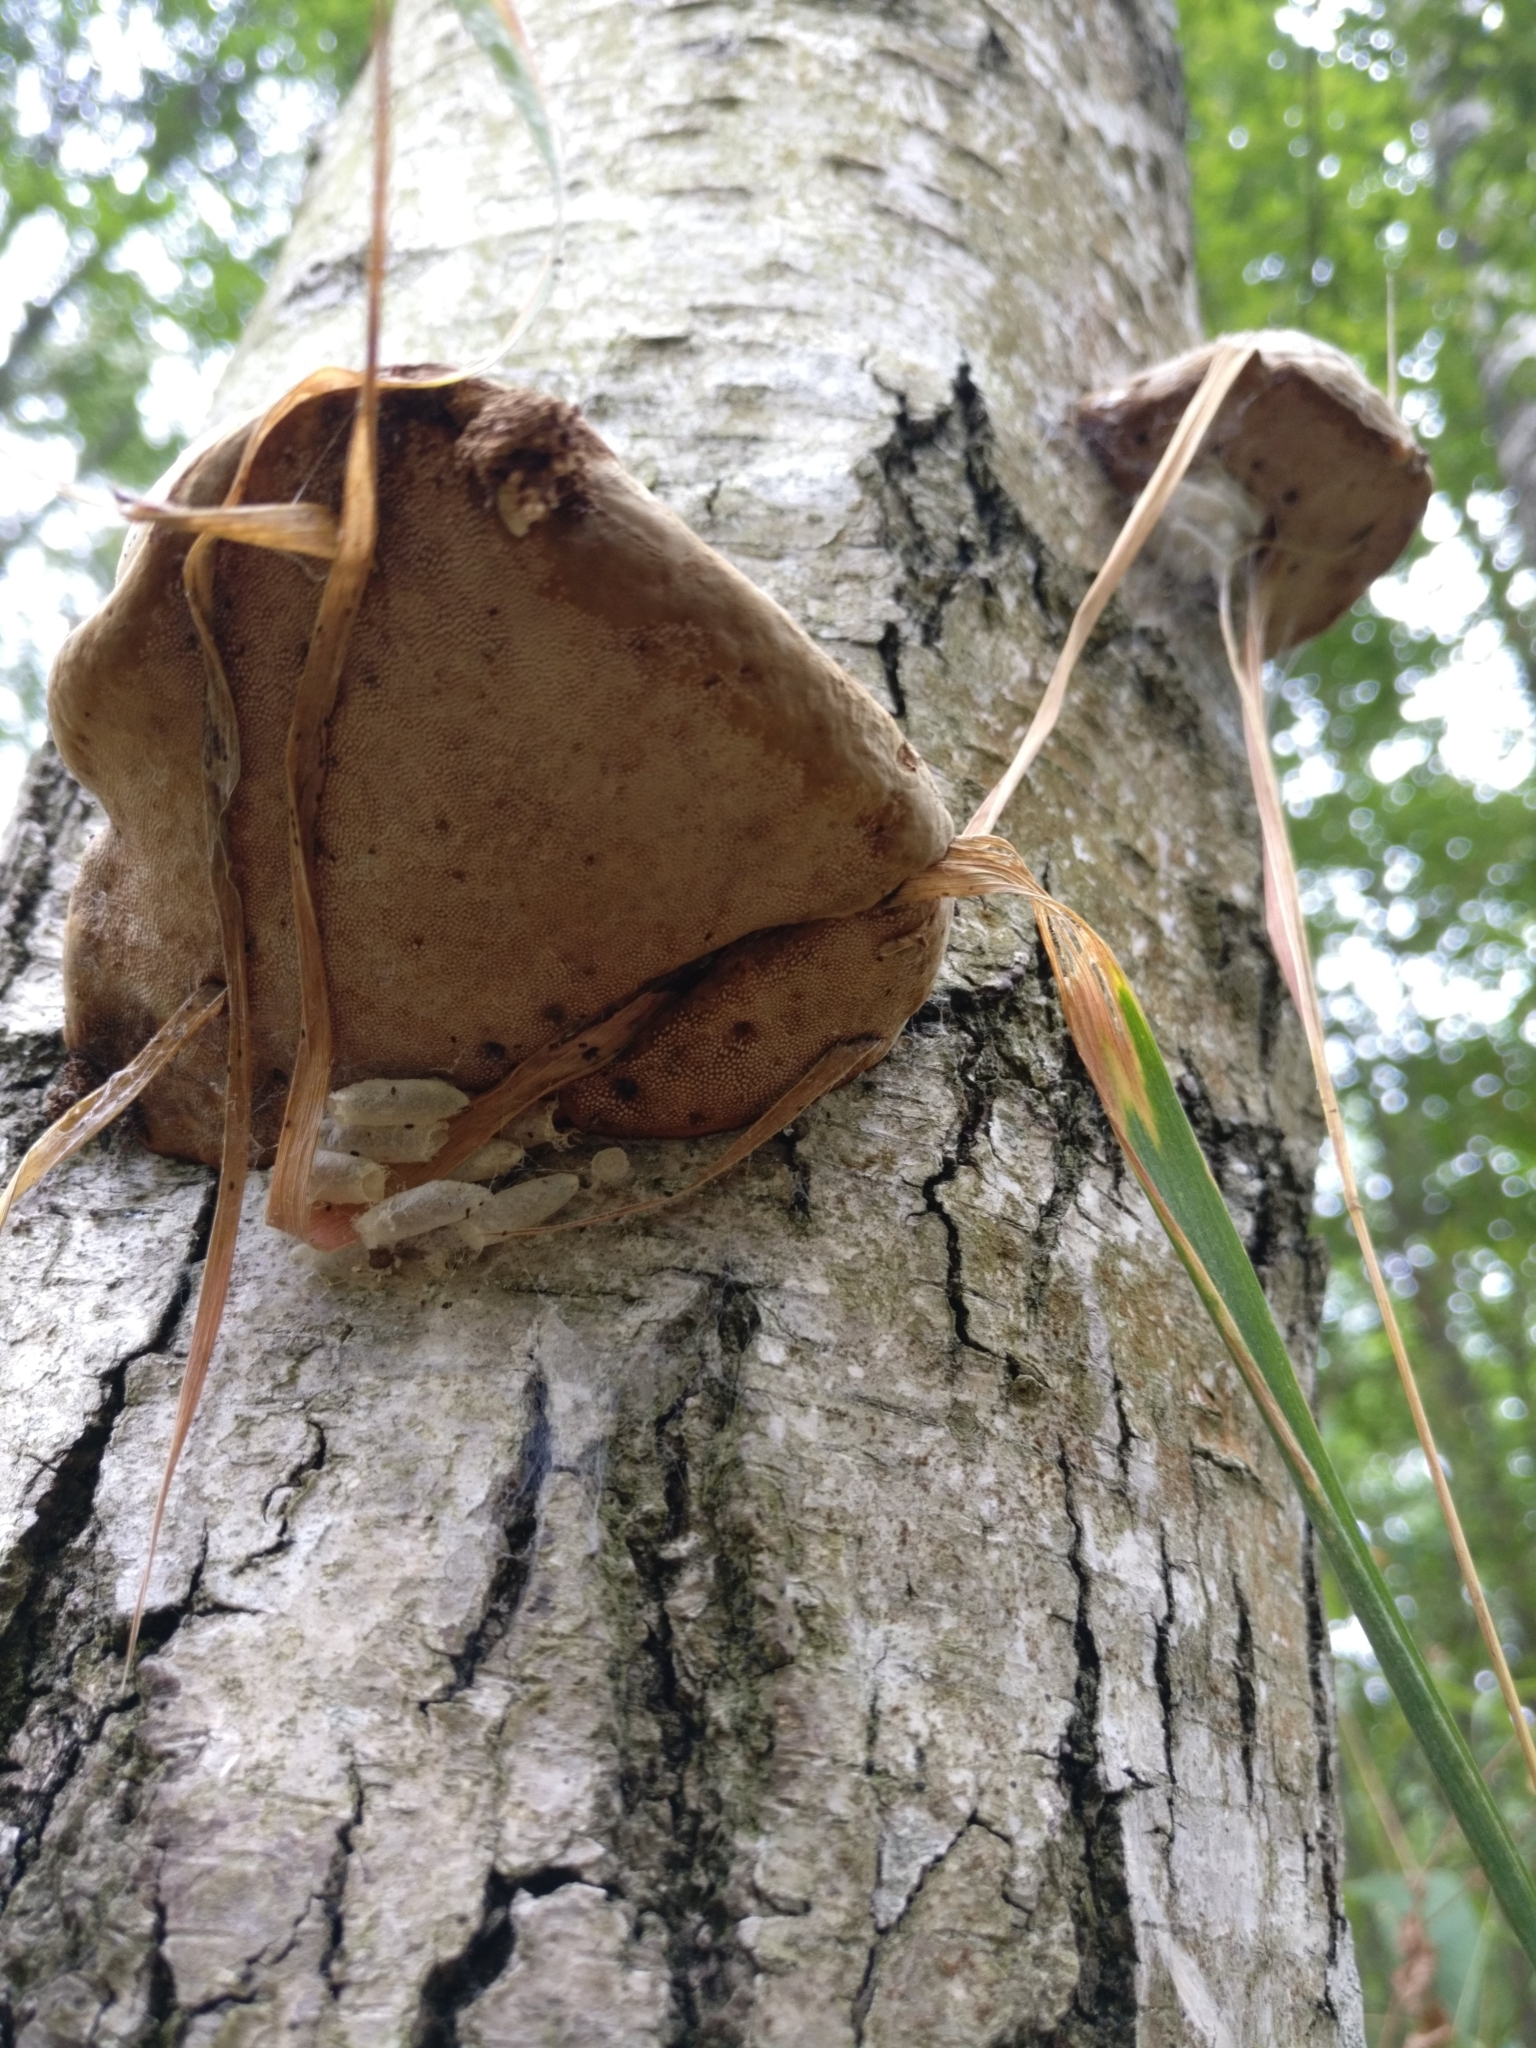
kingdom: Fungi
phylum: Basidiomycota
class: Agaricomycetes
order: Polyporales
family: Polyporaceae
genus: Fomes
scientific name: Fomes fomentarius
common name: Hoof fungus
